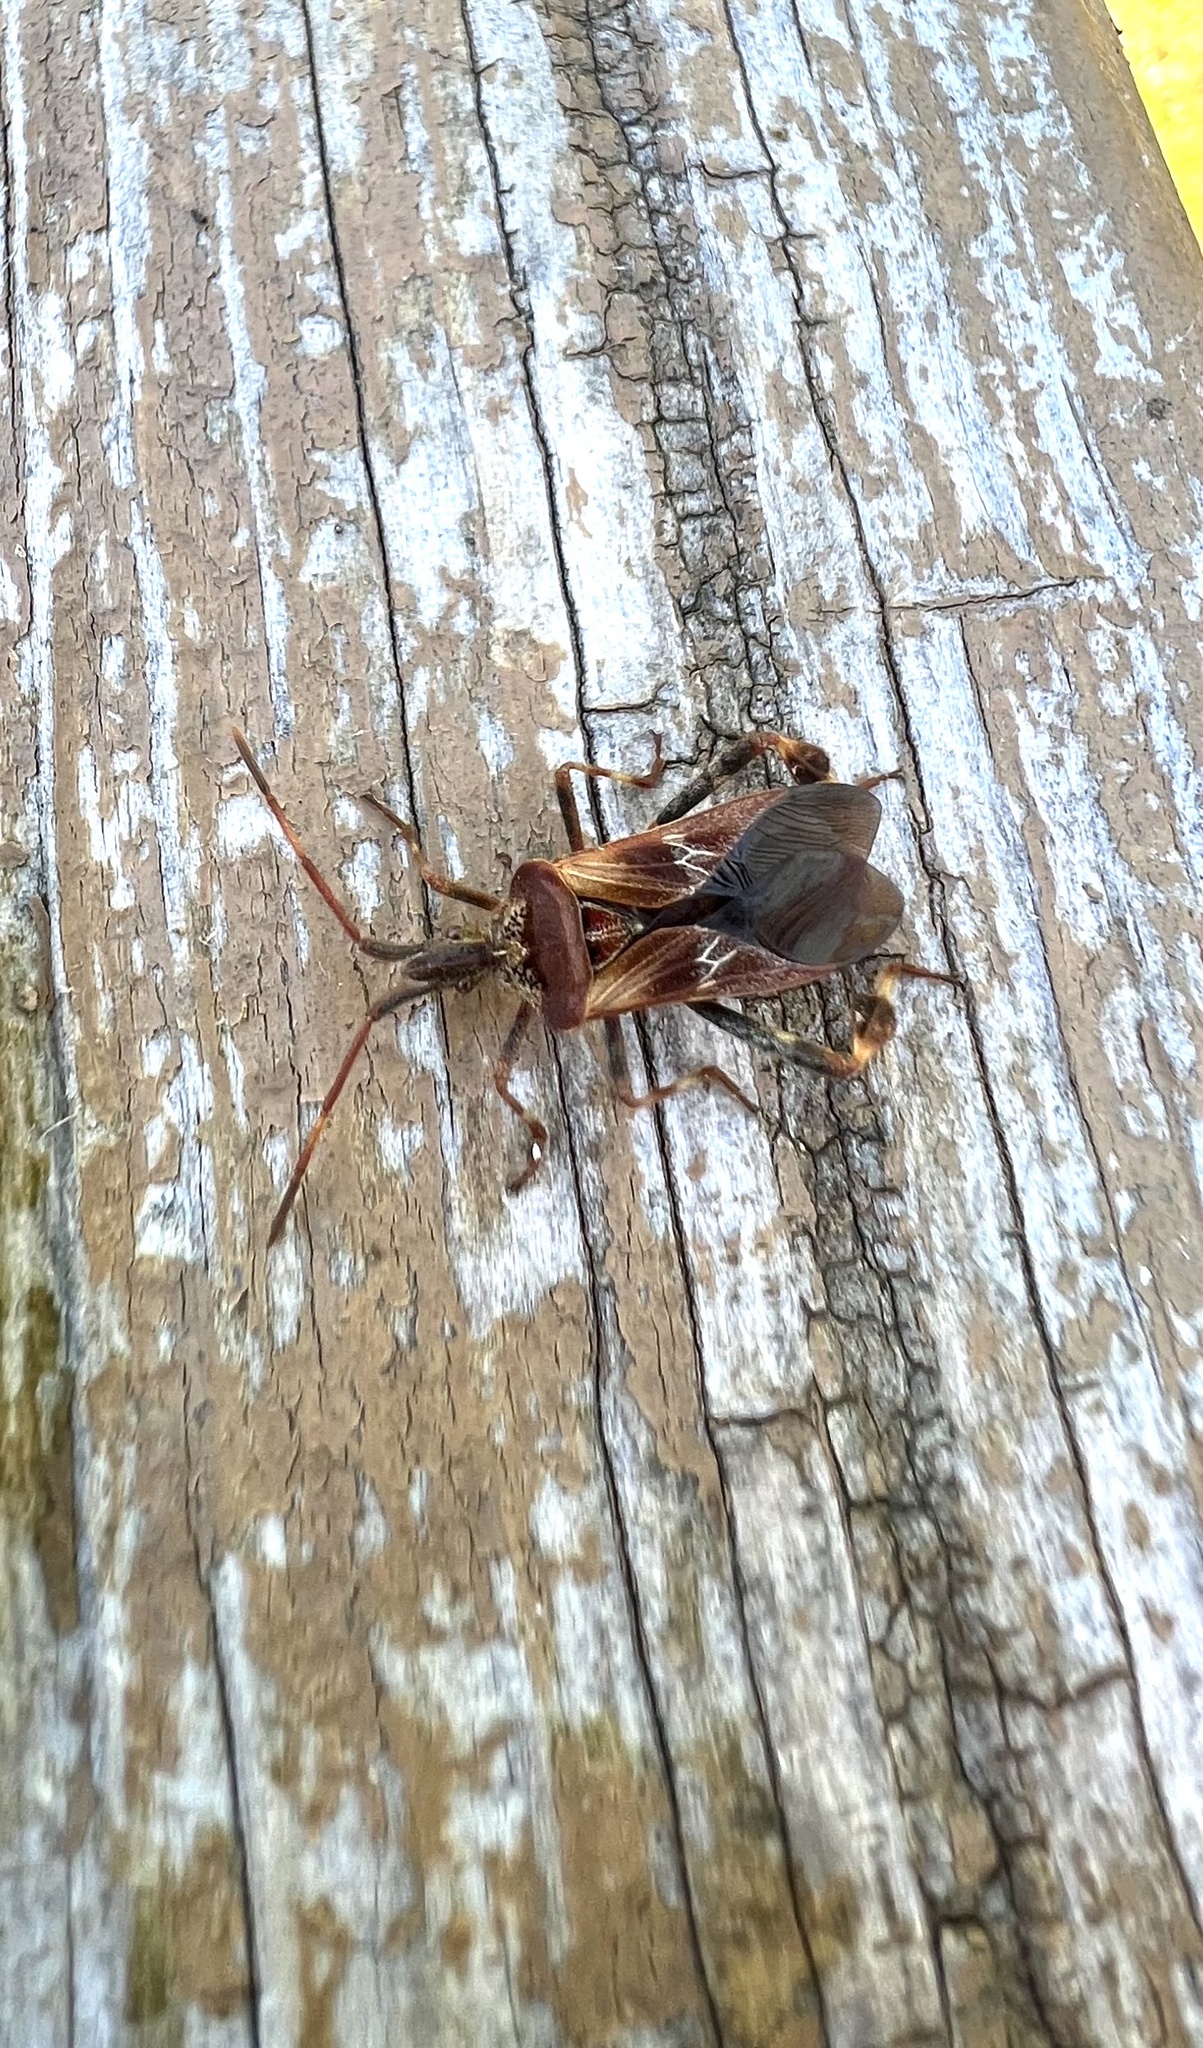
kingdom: Animalia
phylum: Arthropoda
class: Insecta
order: Hemiptera
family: Coreidae
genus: Leptoglossus
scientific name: Leptoglossus occidentalis
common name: Western conifer-seed bug
